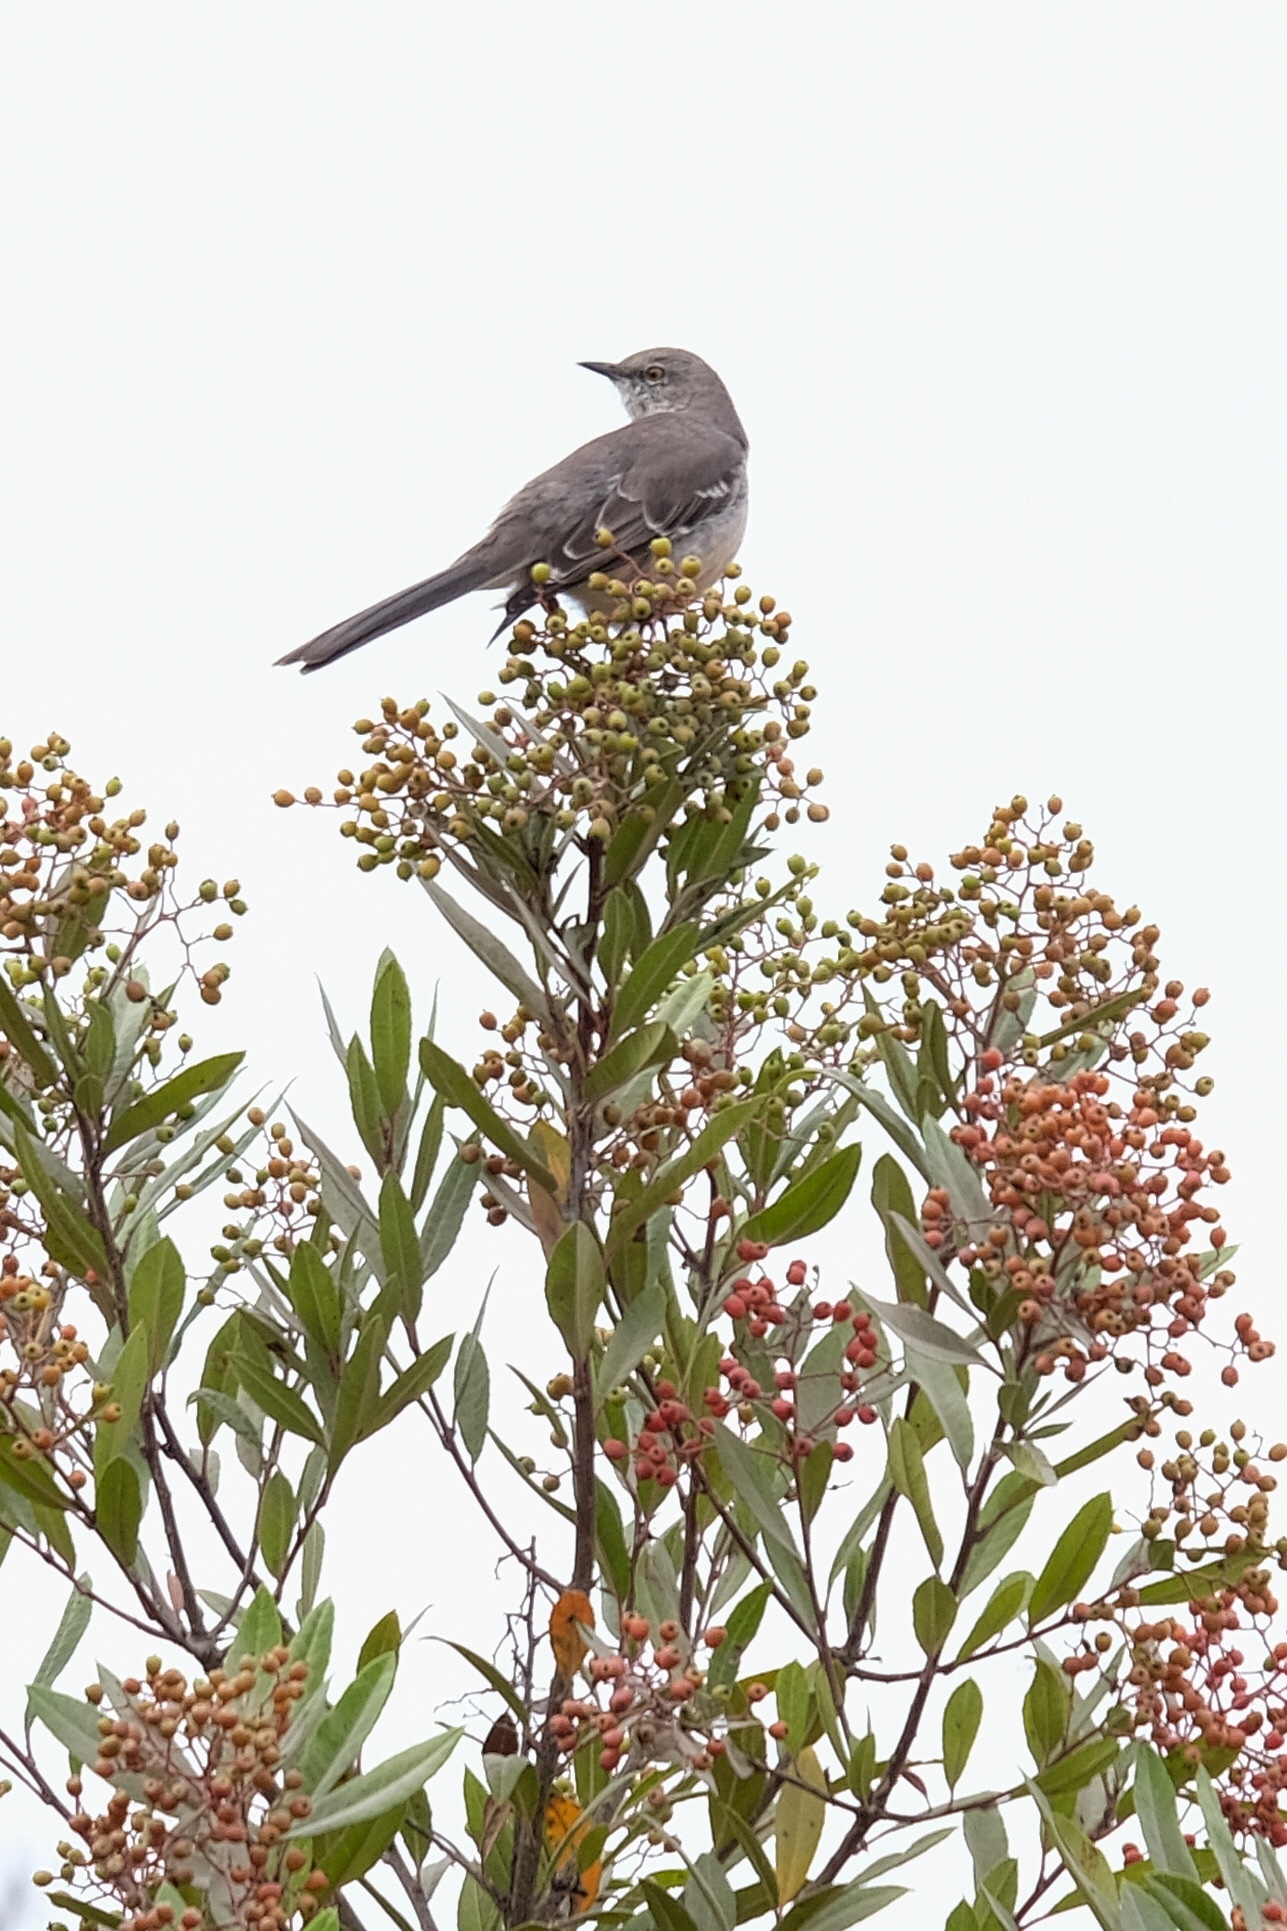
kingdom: Animalia
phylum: Chordata
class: Aves
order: Passeriformes
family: Mimidae
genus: Mimus
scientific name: Mimus polyglottos
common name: Northern mockingbird
